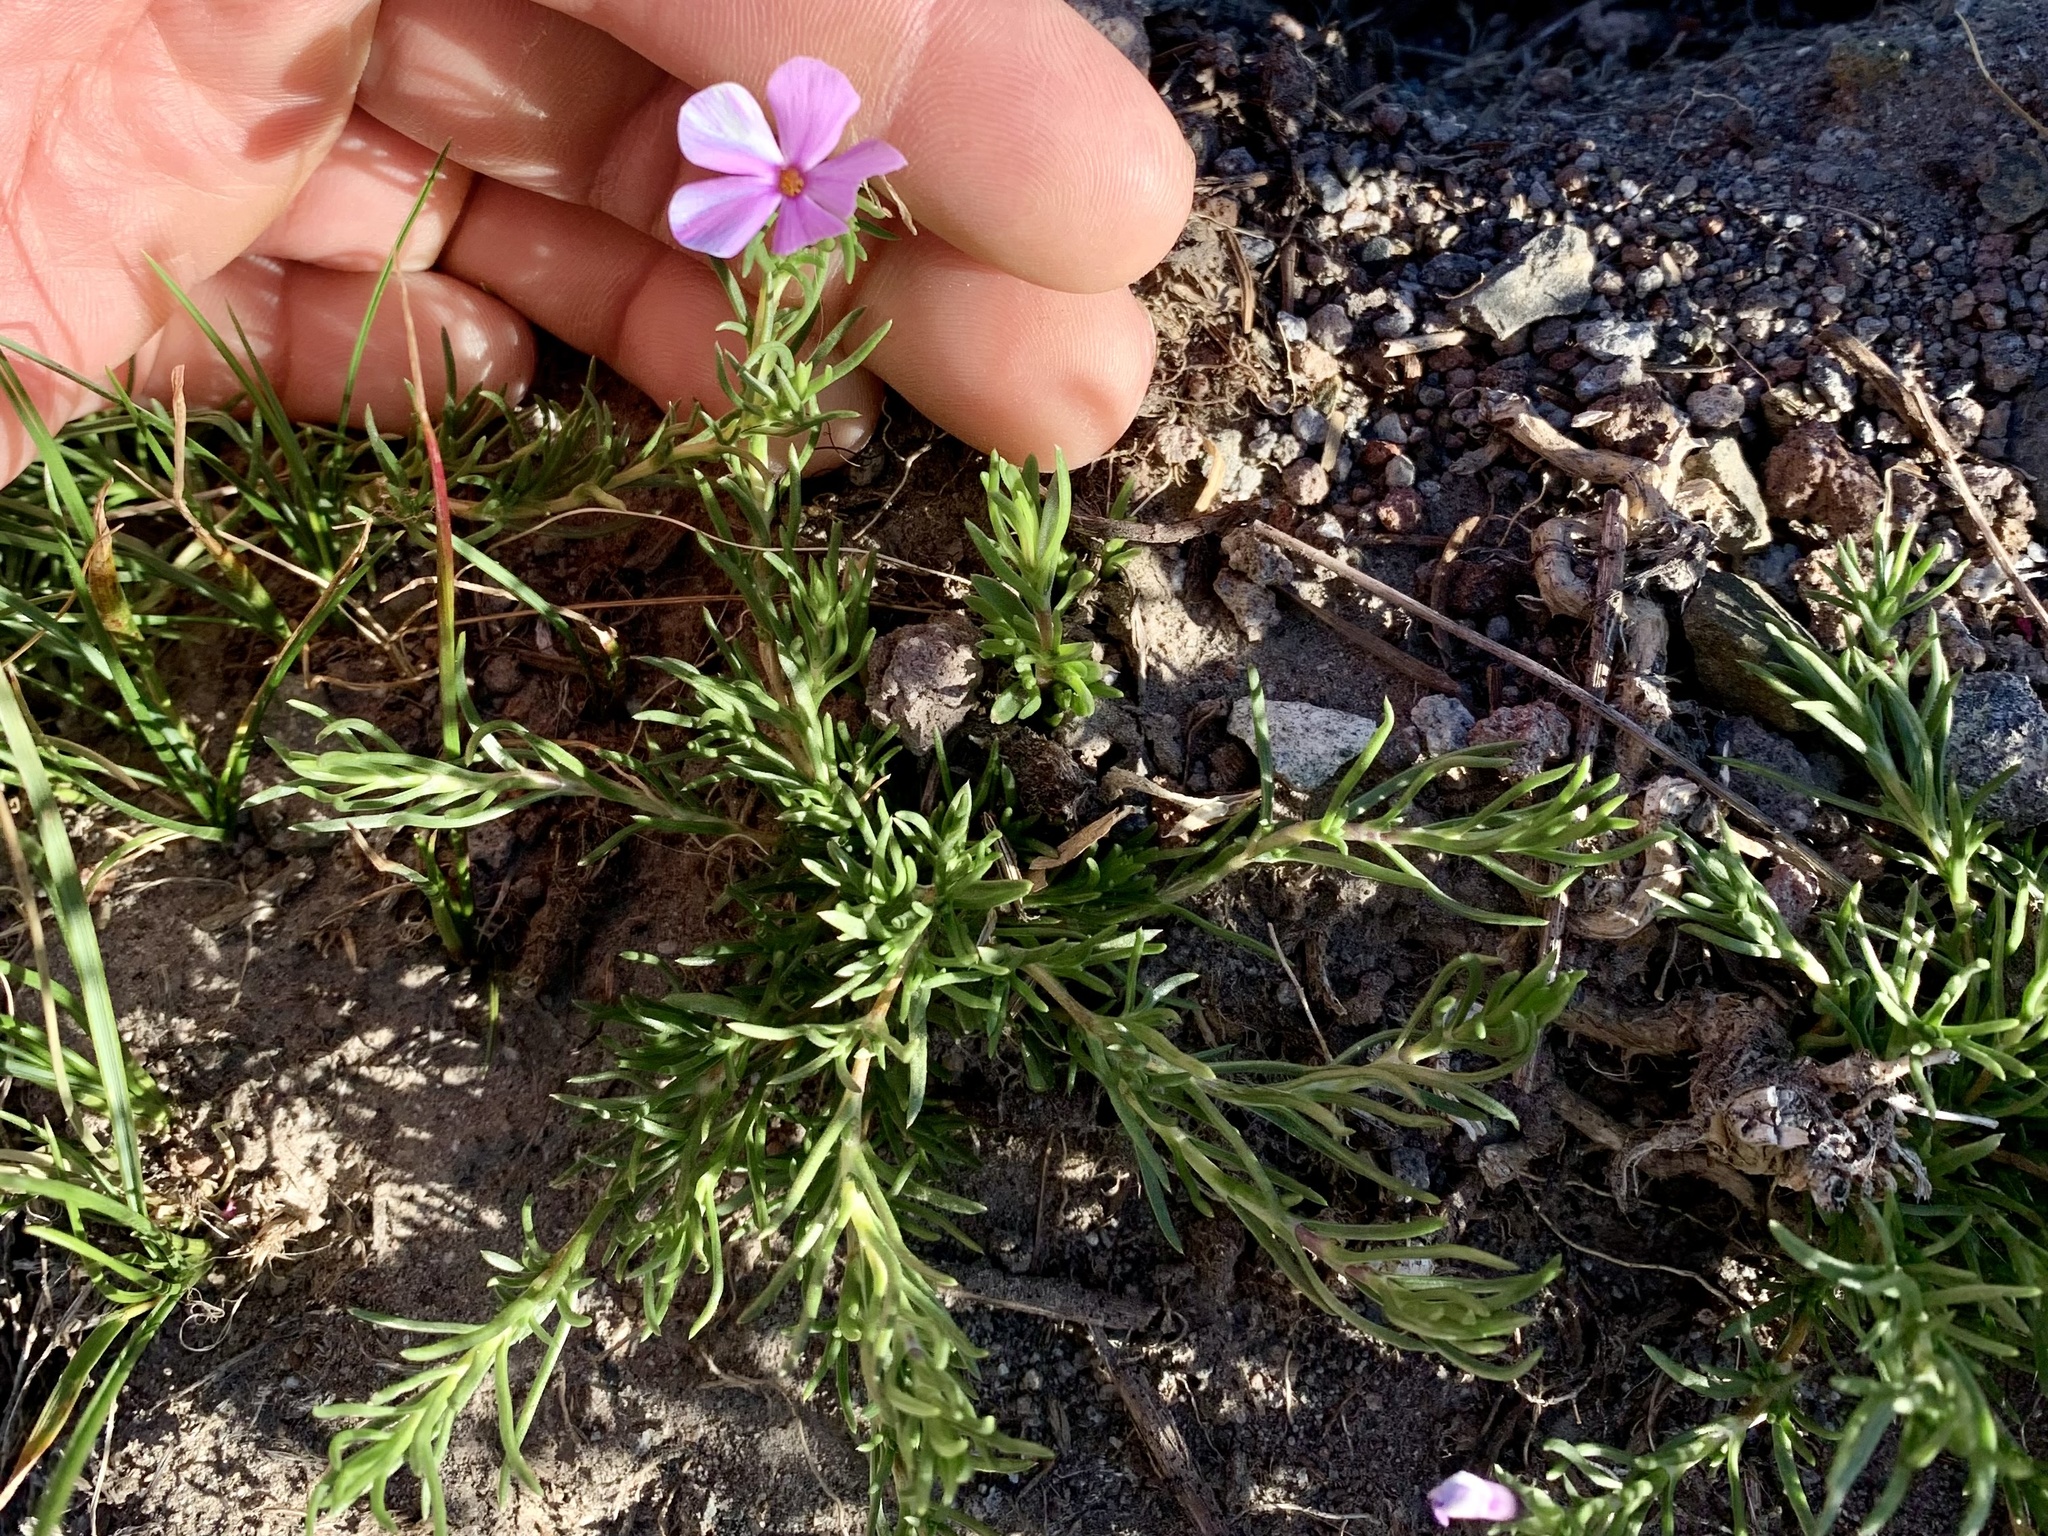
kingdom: Plantae
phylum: Tracheophyta
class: Magnoliopsida
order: Ericales
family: Polemoniaceae
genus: Phlox
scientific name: Phlox diffusa
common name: Mat phlox
